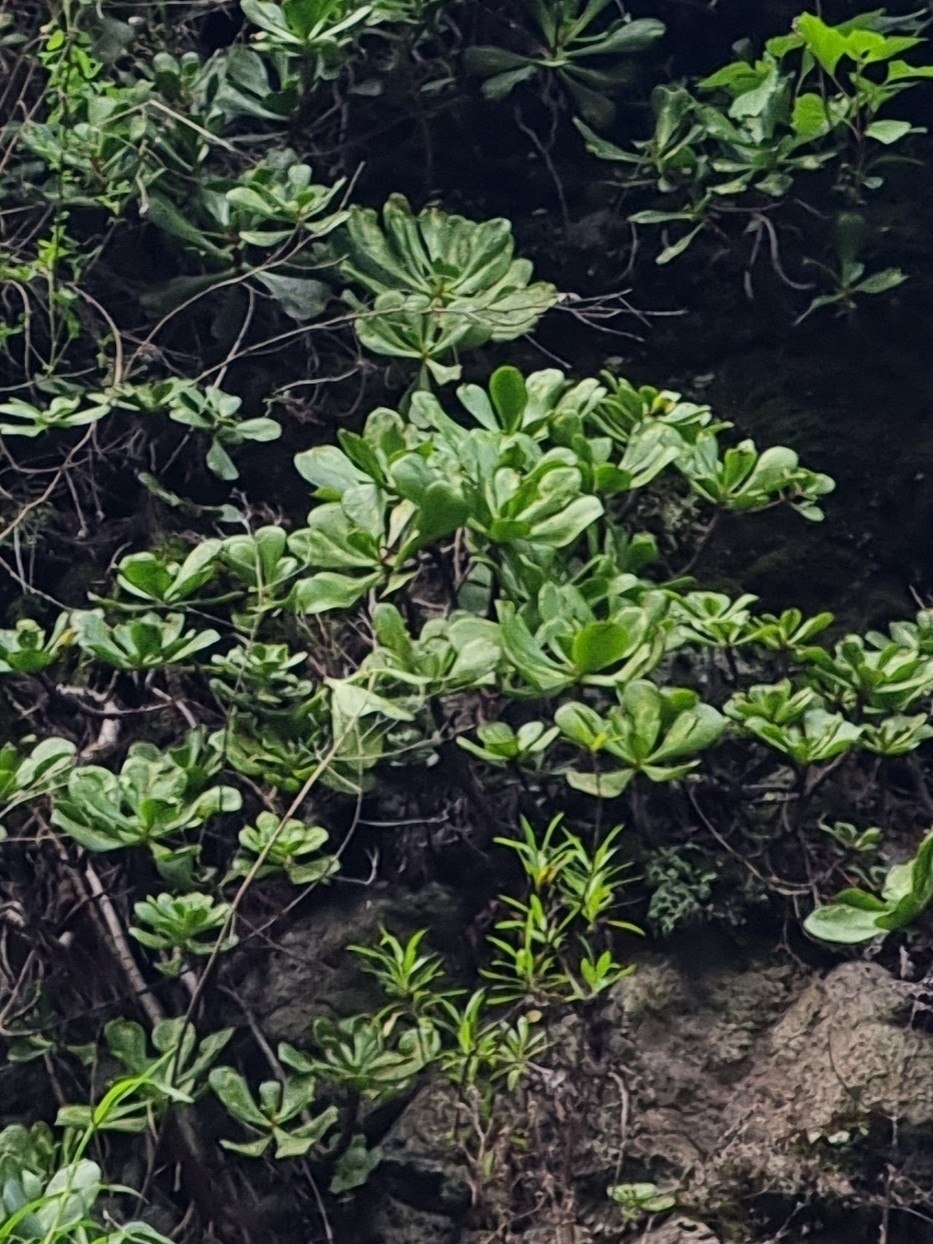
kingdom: Plantae
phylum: Tracheophyta
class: Magnoliopsida
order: Saxifragales
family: Crassulaceae
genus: Aeonium
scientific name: Aeonium glutinosum
